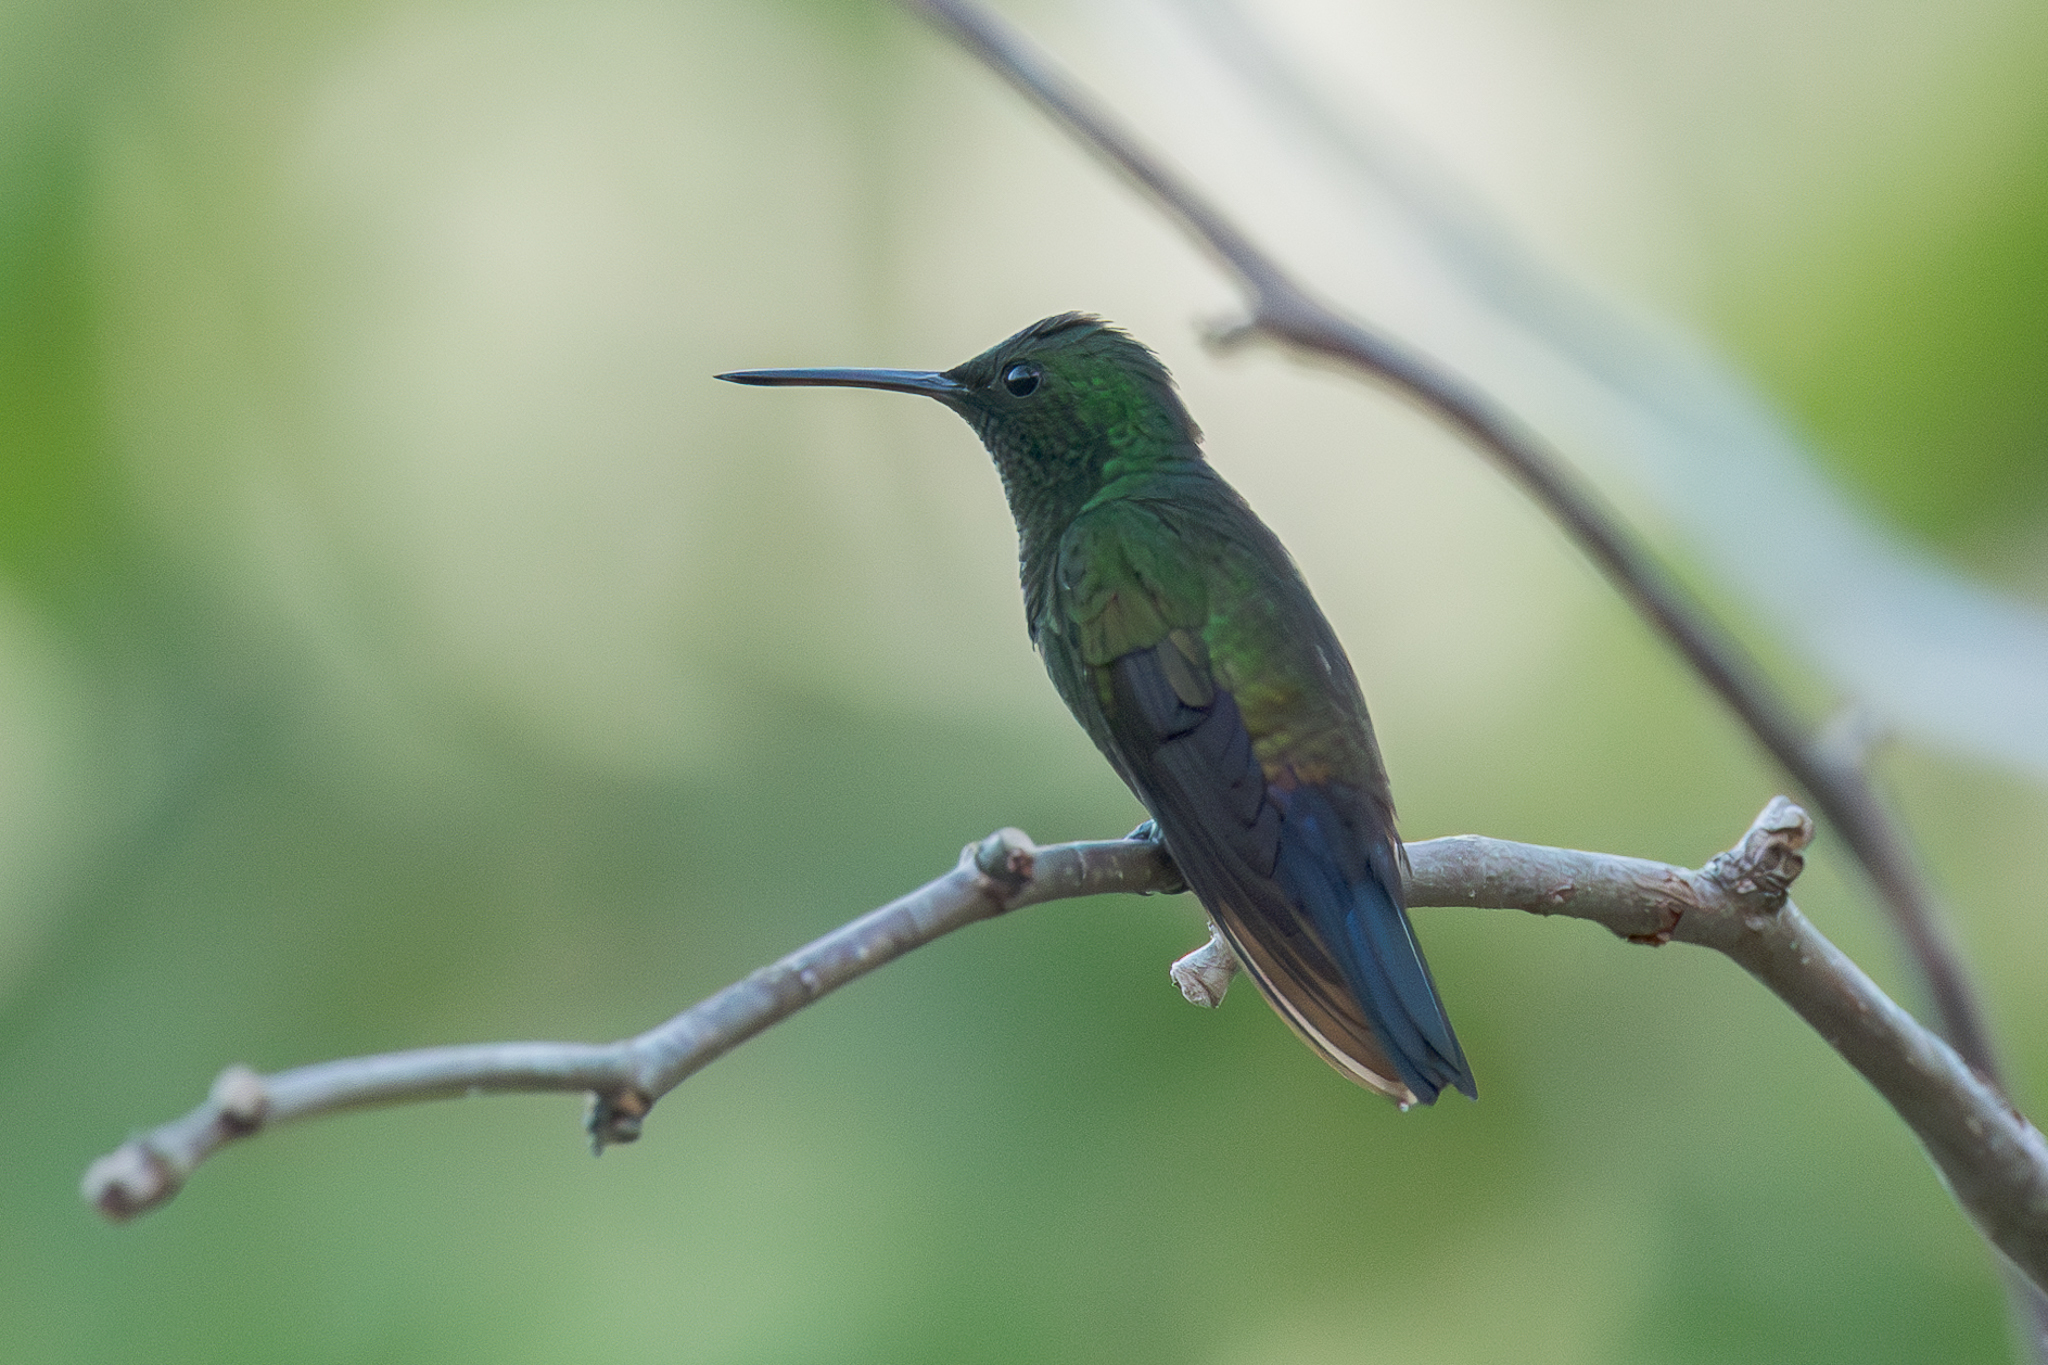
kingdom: Animalia
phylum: Chordata
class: Aves
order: Apodiformes
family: Trochilidae
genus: Saucerottia
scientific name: Saucerottia hoffmanni
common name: Blue-vented hummingbird
